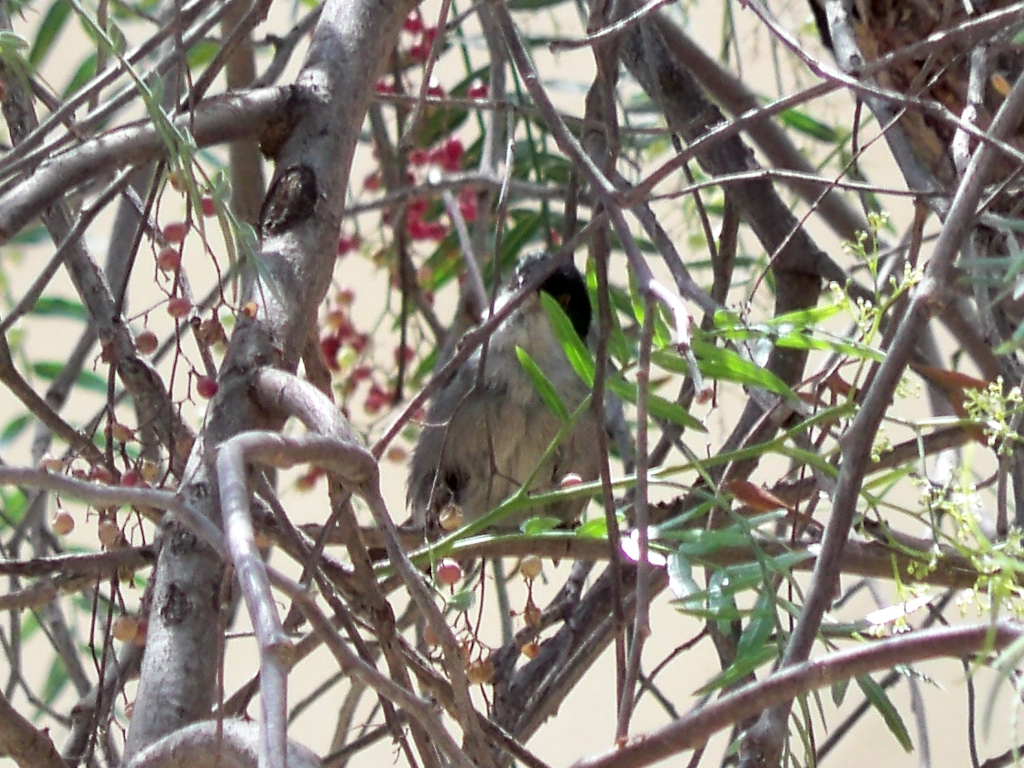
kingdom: Animalia
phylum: Chordata
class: Aves
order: Passeriformes
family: Sylviidae
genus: Curruca
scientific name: Curruca melanocephala
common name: Sardinian warbler
